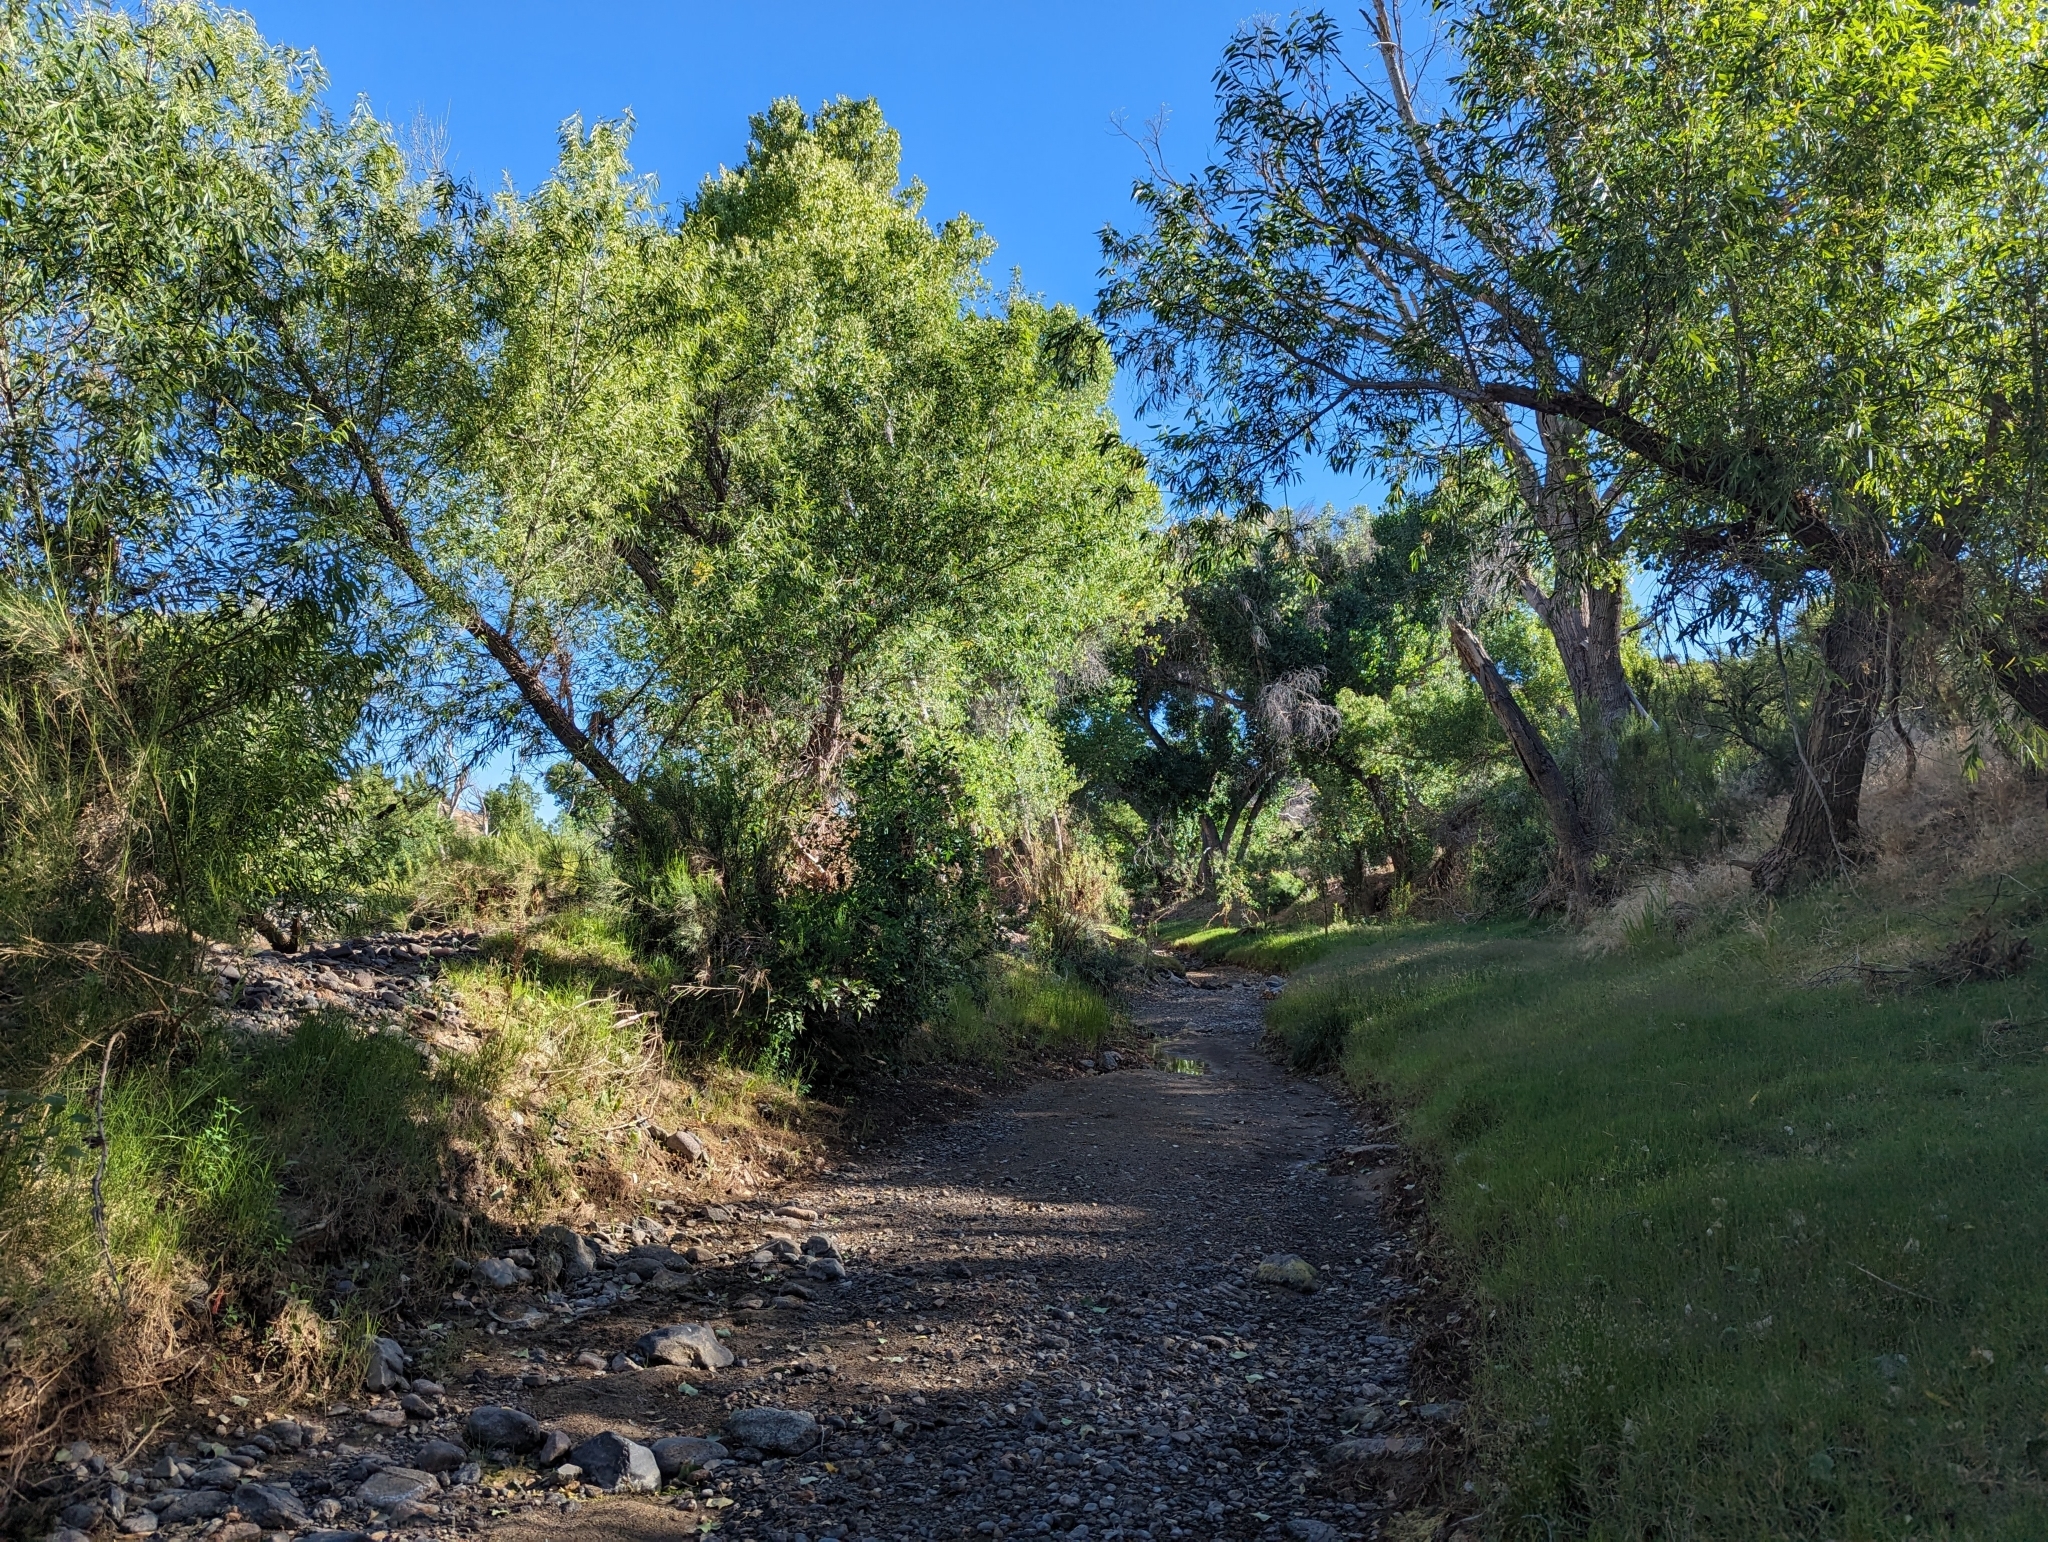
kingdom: Plantae
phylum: Tracheophyta
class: Magnoliopsida
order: Malpighiales
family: Salicaceae
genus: Populus
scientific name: Populus fremontii
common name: Fremont's cottonwood
